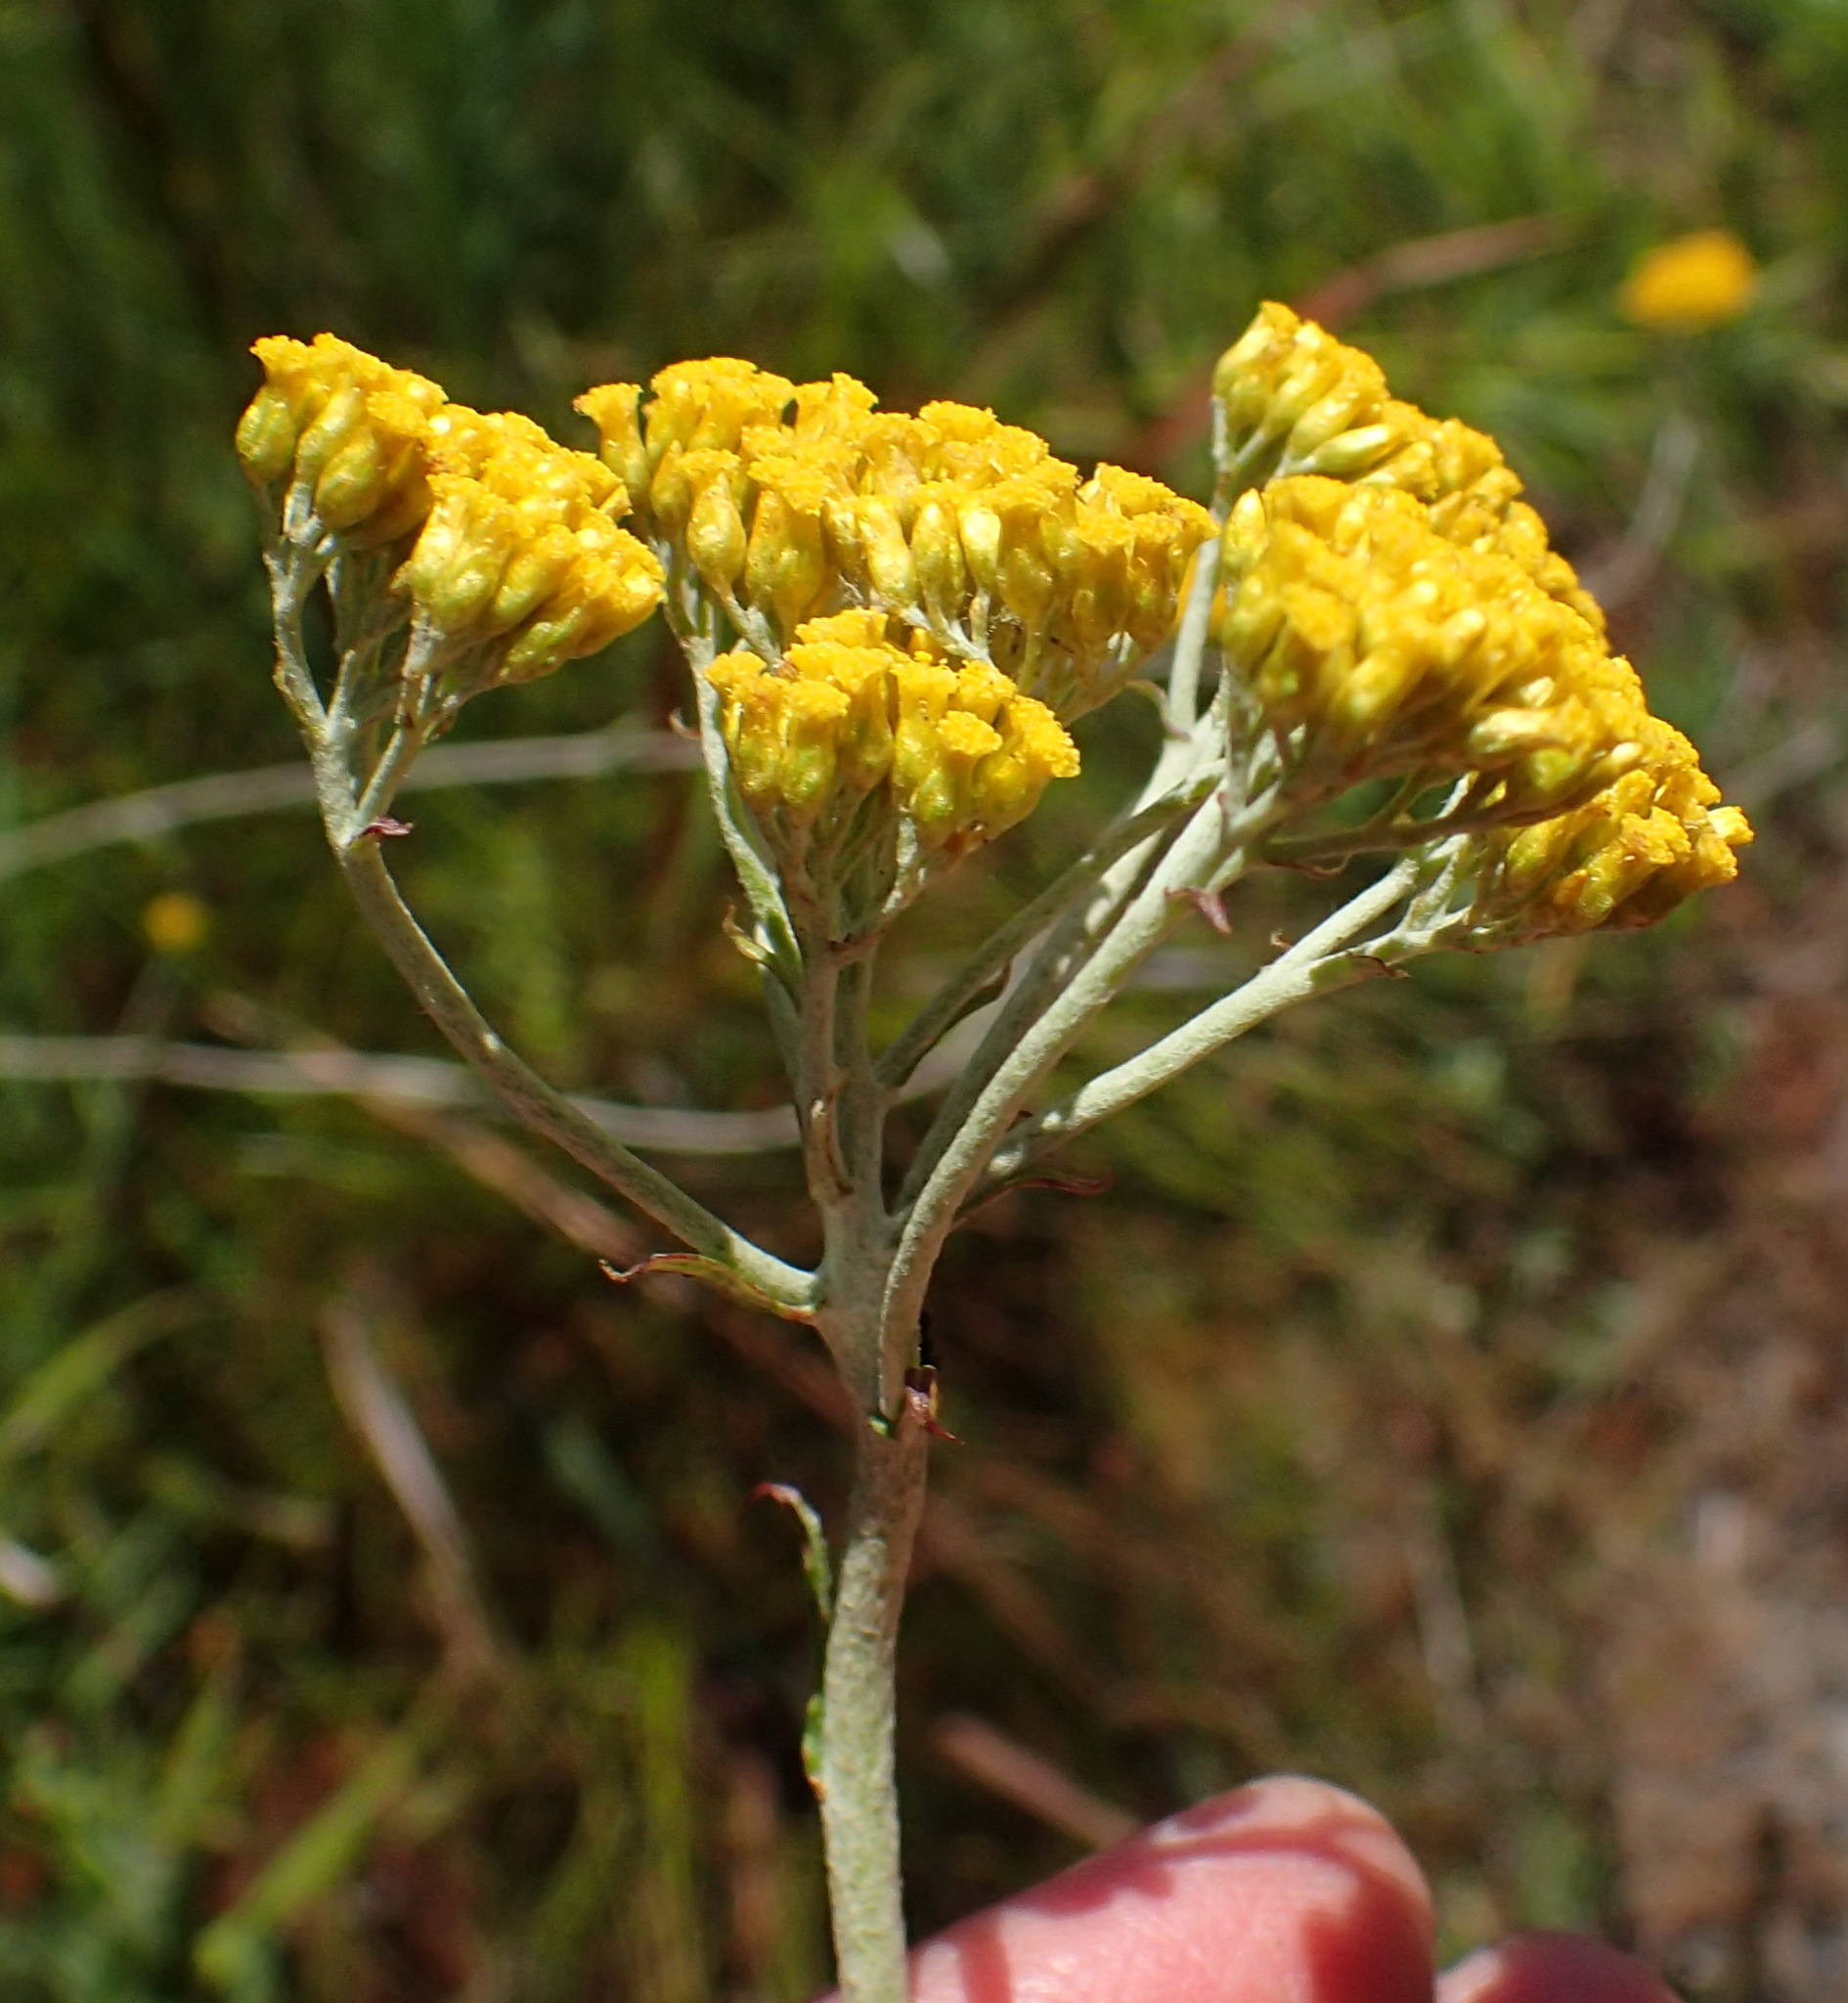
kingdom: Plantae
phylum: Tracheophyta
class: Magnoliopsida
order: Asterales
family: Asteraceae
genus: Helichrysum
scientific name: Helichrysum cymosum
